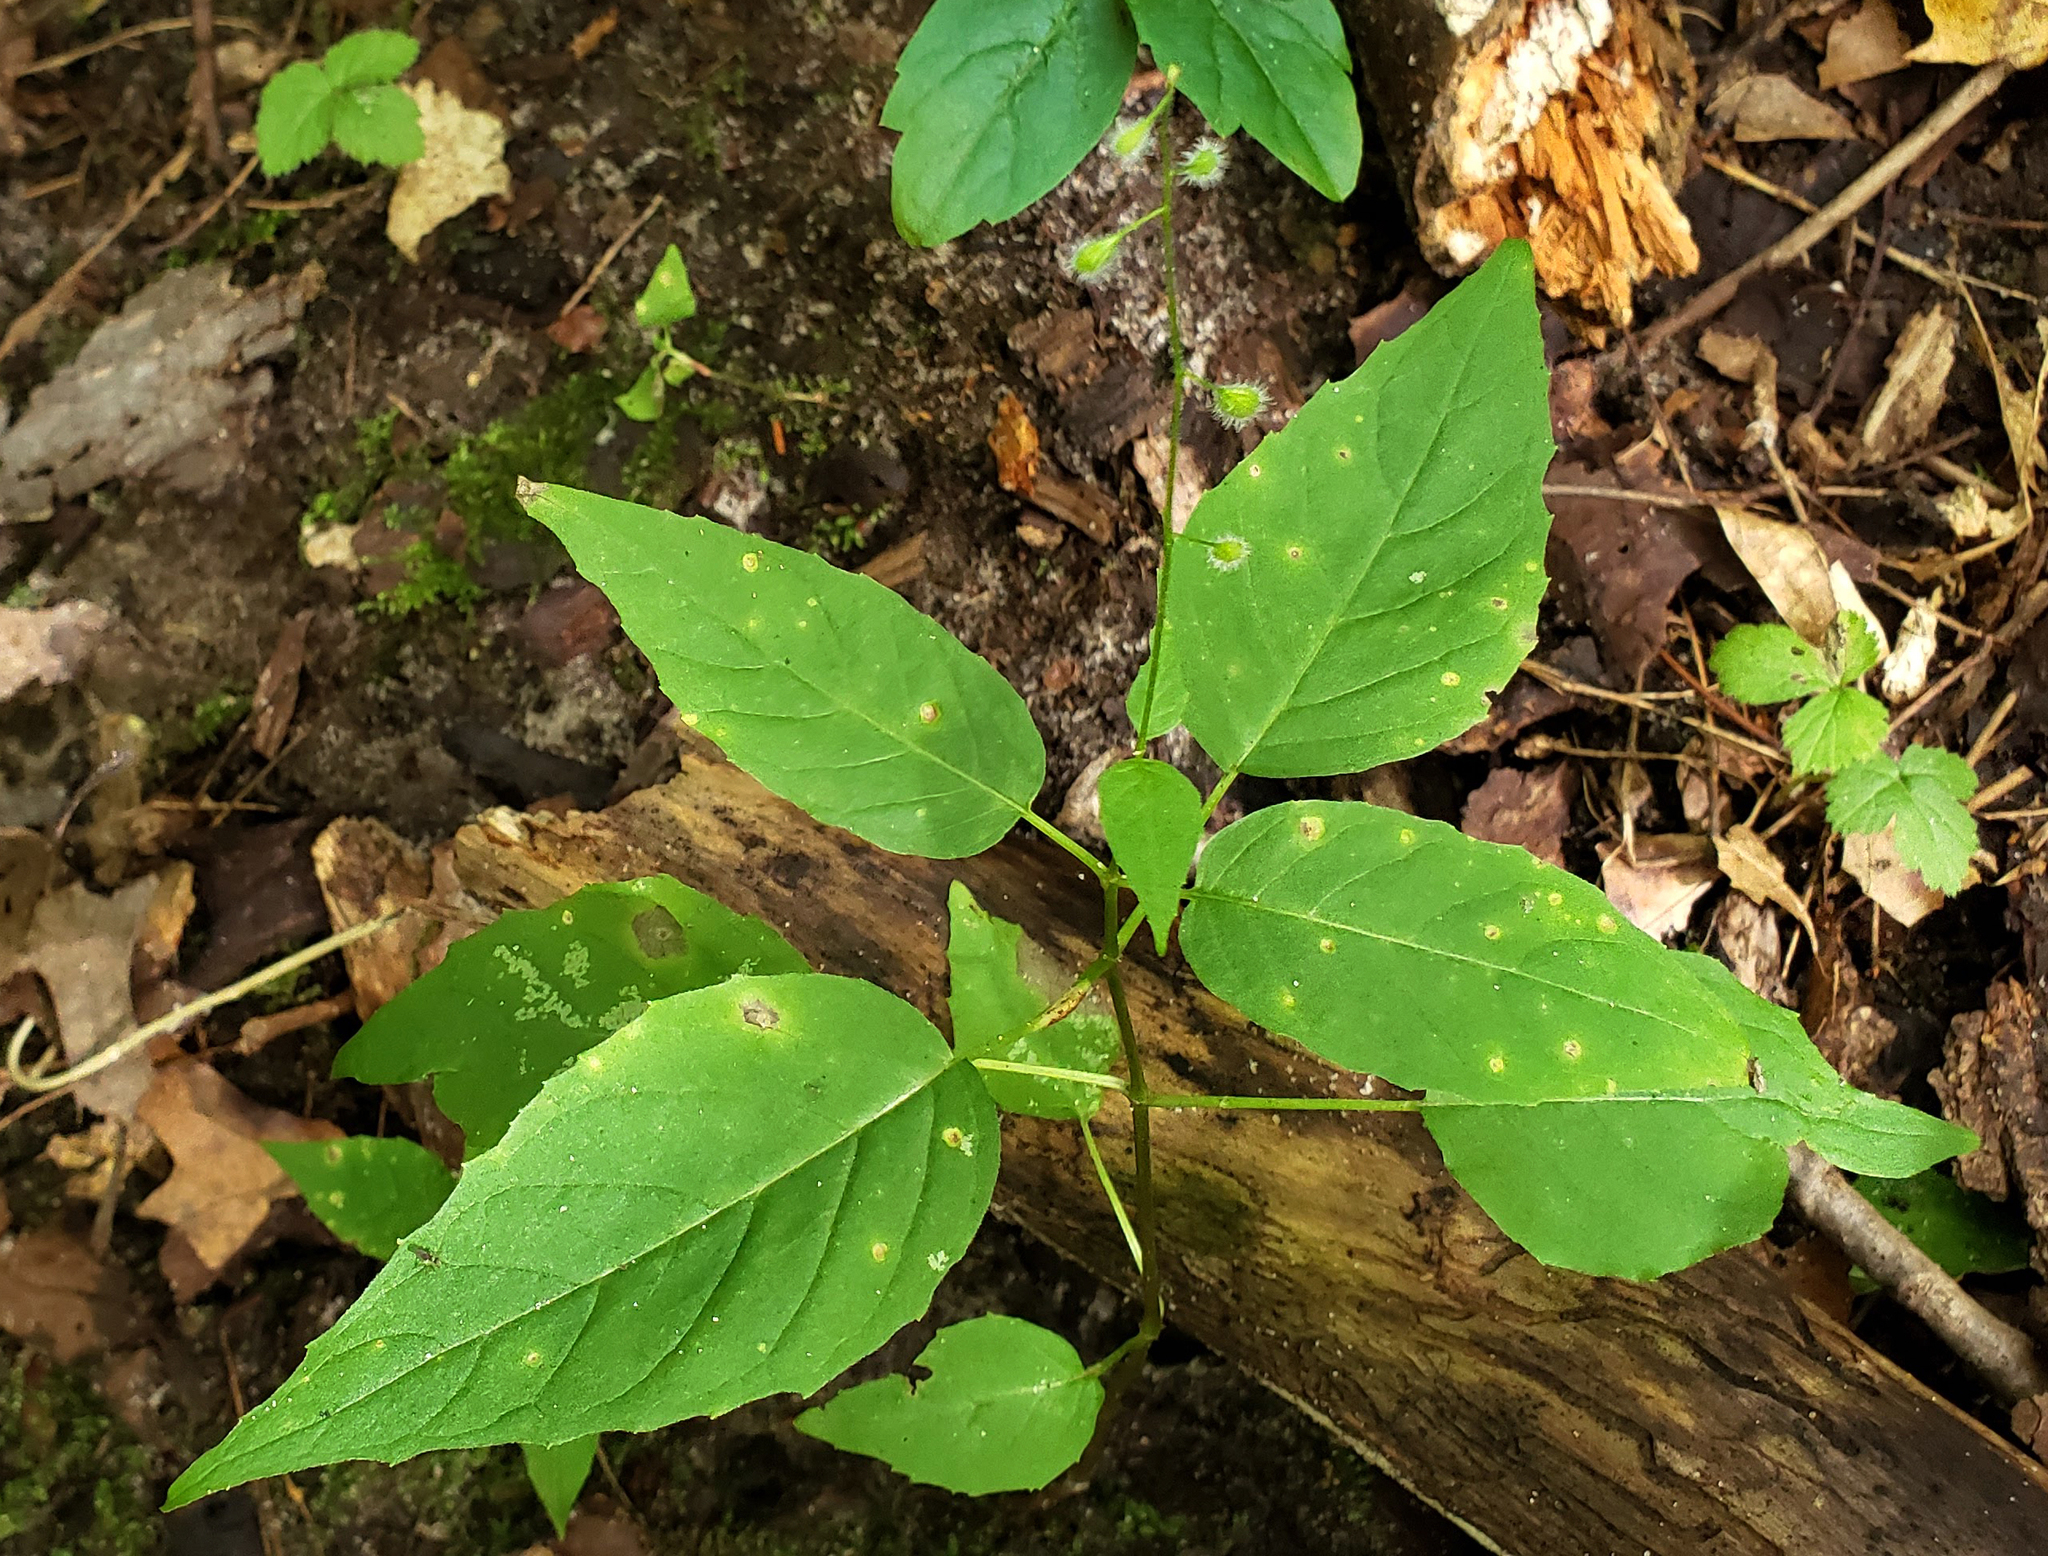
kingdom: Plantae
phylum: Tracheophyta
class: Magnoliopsida
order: Myrtales
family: Onagraceae
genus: Circaea
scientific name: Circaea canadensis
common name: Broad-leaved enchanter's nightshade
